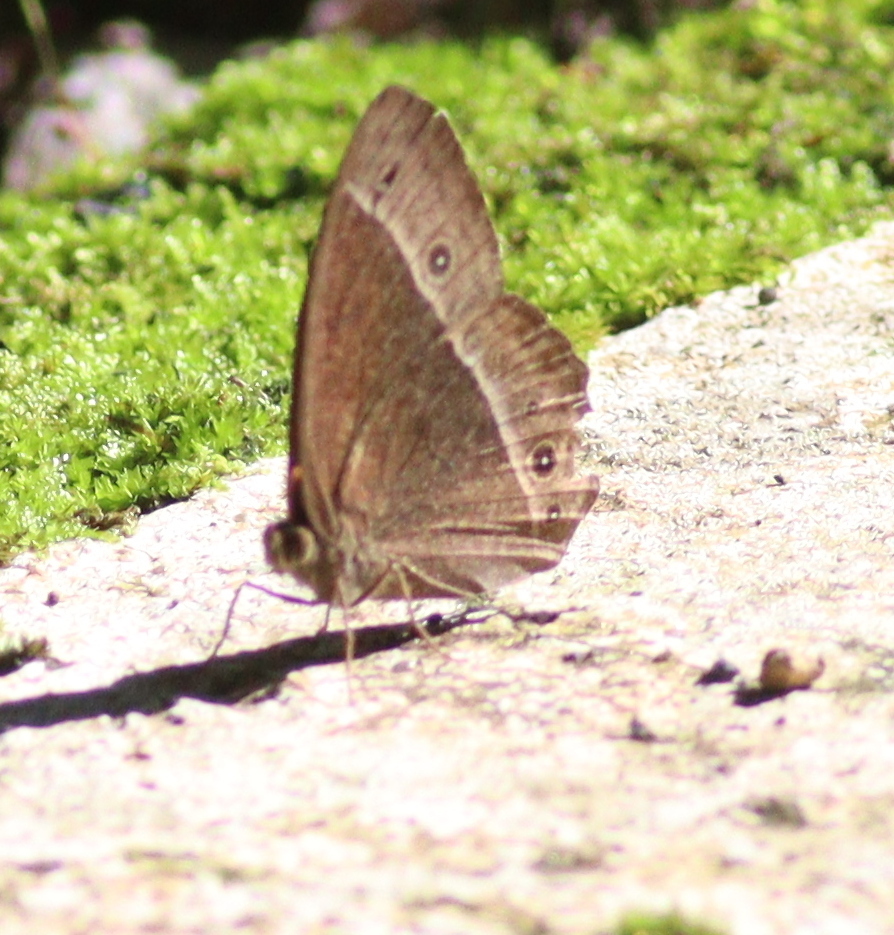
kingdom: Animalia
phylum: Arthropoda
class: Insecta
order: Lepidoptera
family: Nymphalidae
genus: Mycalesis
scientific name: Mycalesis sudra
